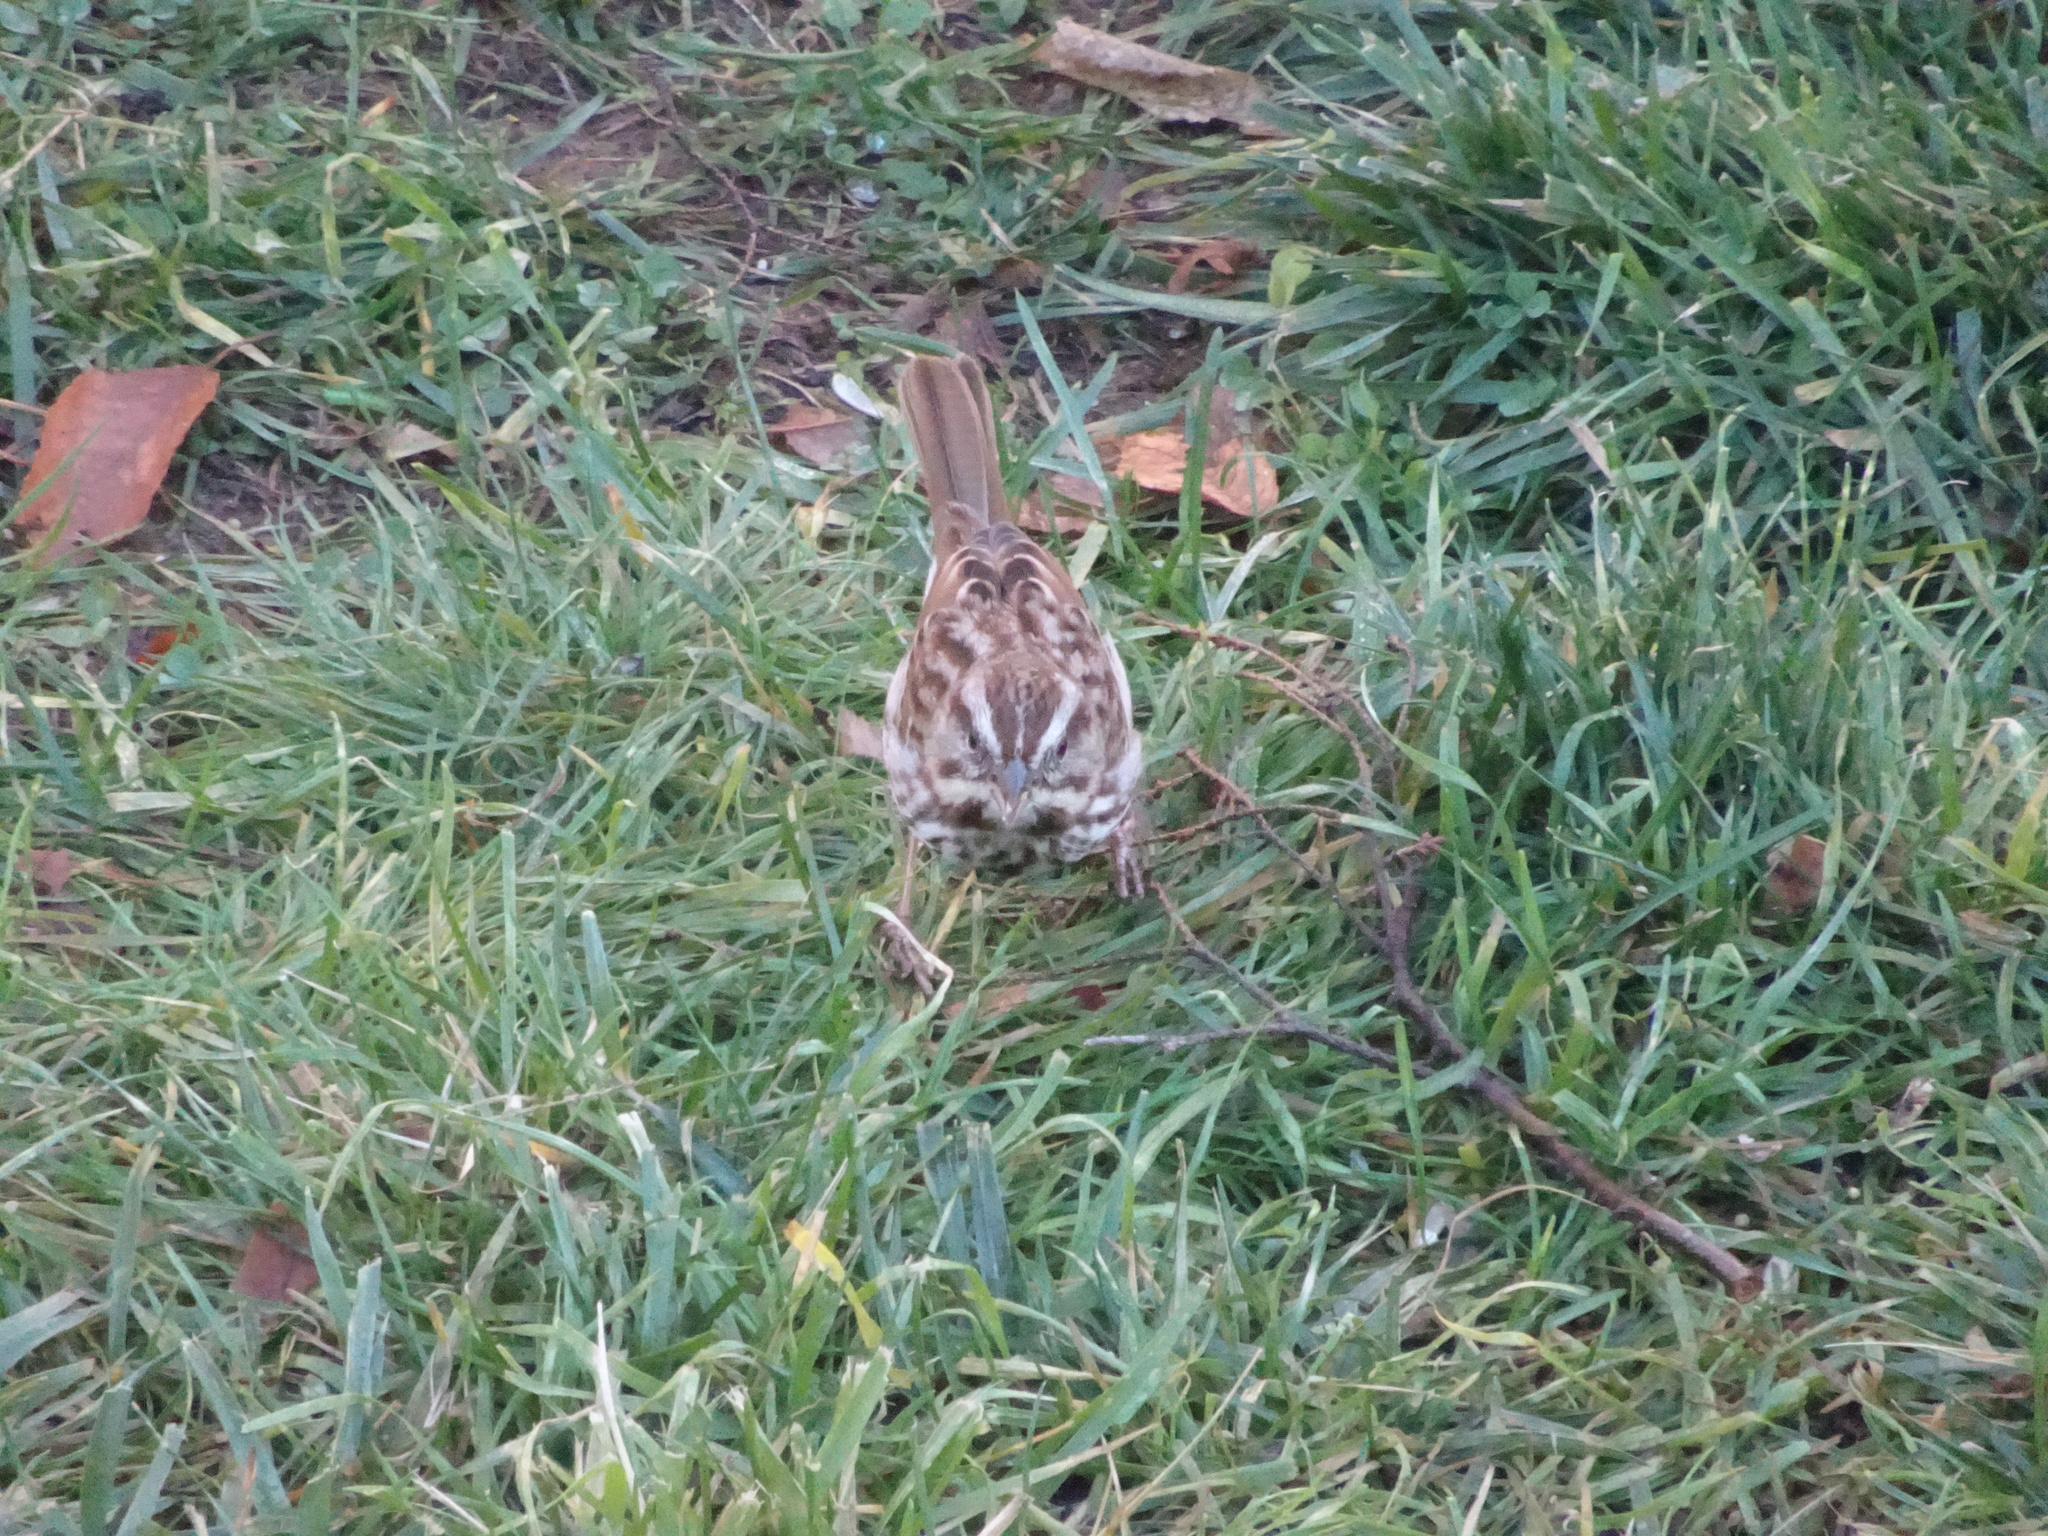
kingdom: Animalia
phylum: Chordata
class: Aves
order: Passeriformes
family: Passerellidae
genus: Melospiza
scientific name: Melospiza melodia
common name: Song sparrow
